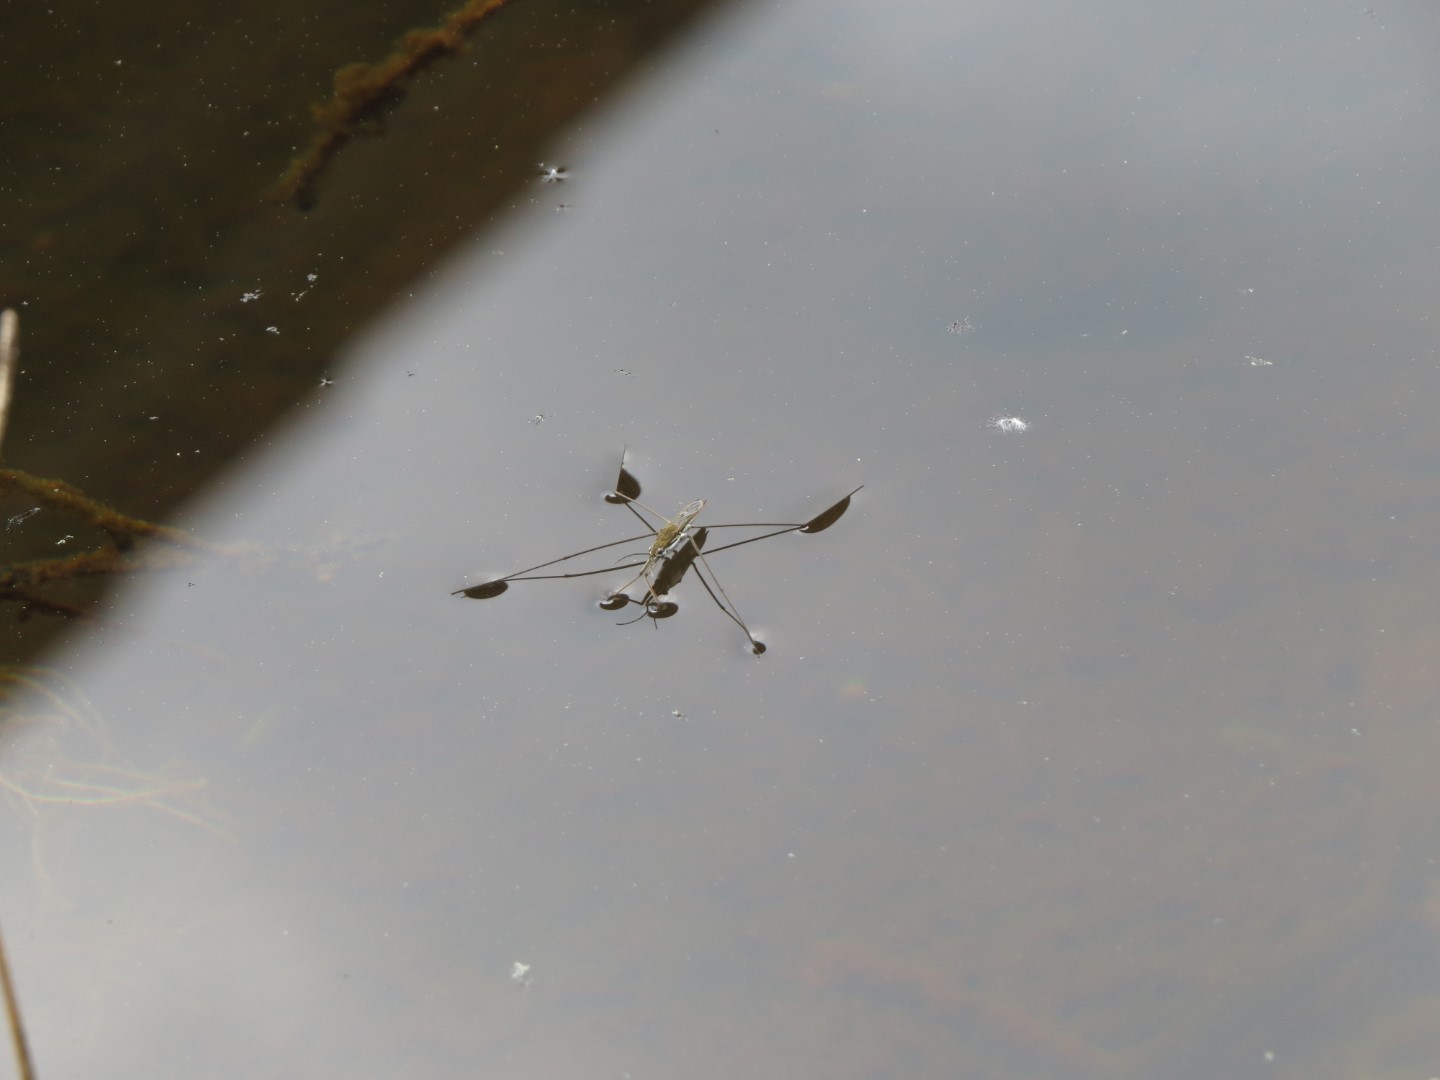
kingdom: Animalia
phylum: Arthropoda
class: Insecta
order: Hemiptera
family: Gerridae
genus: Aquarius
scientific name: Aquarius paludum
